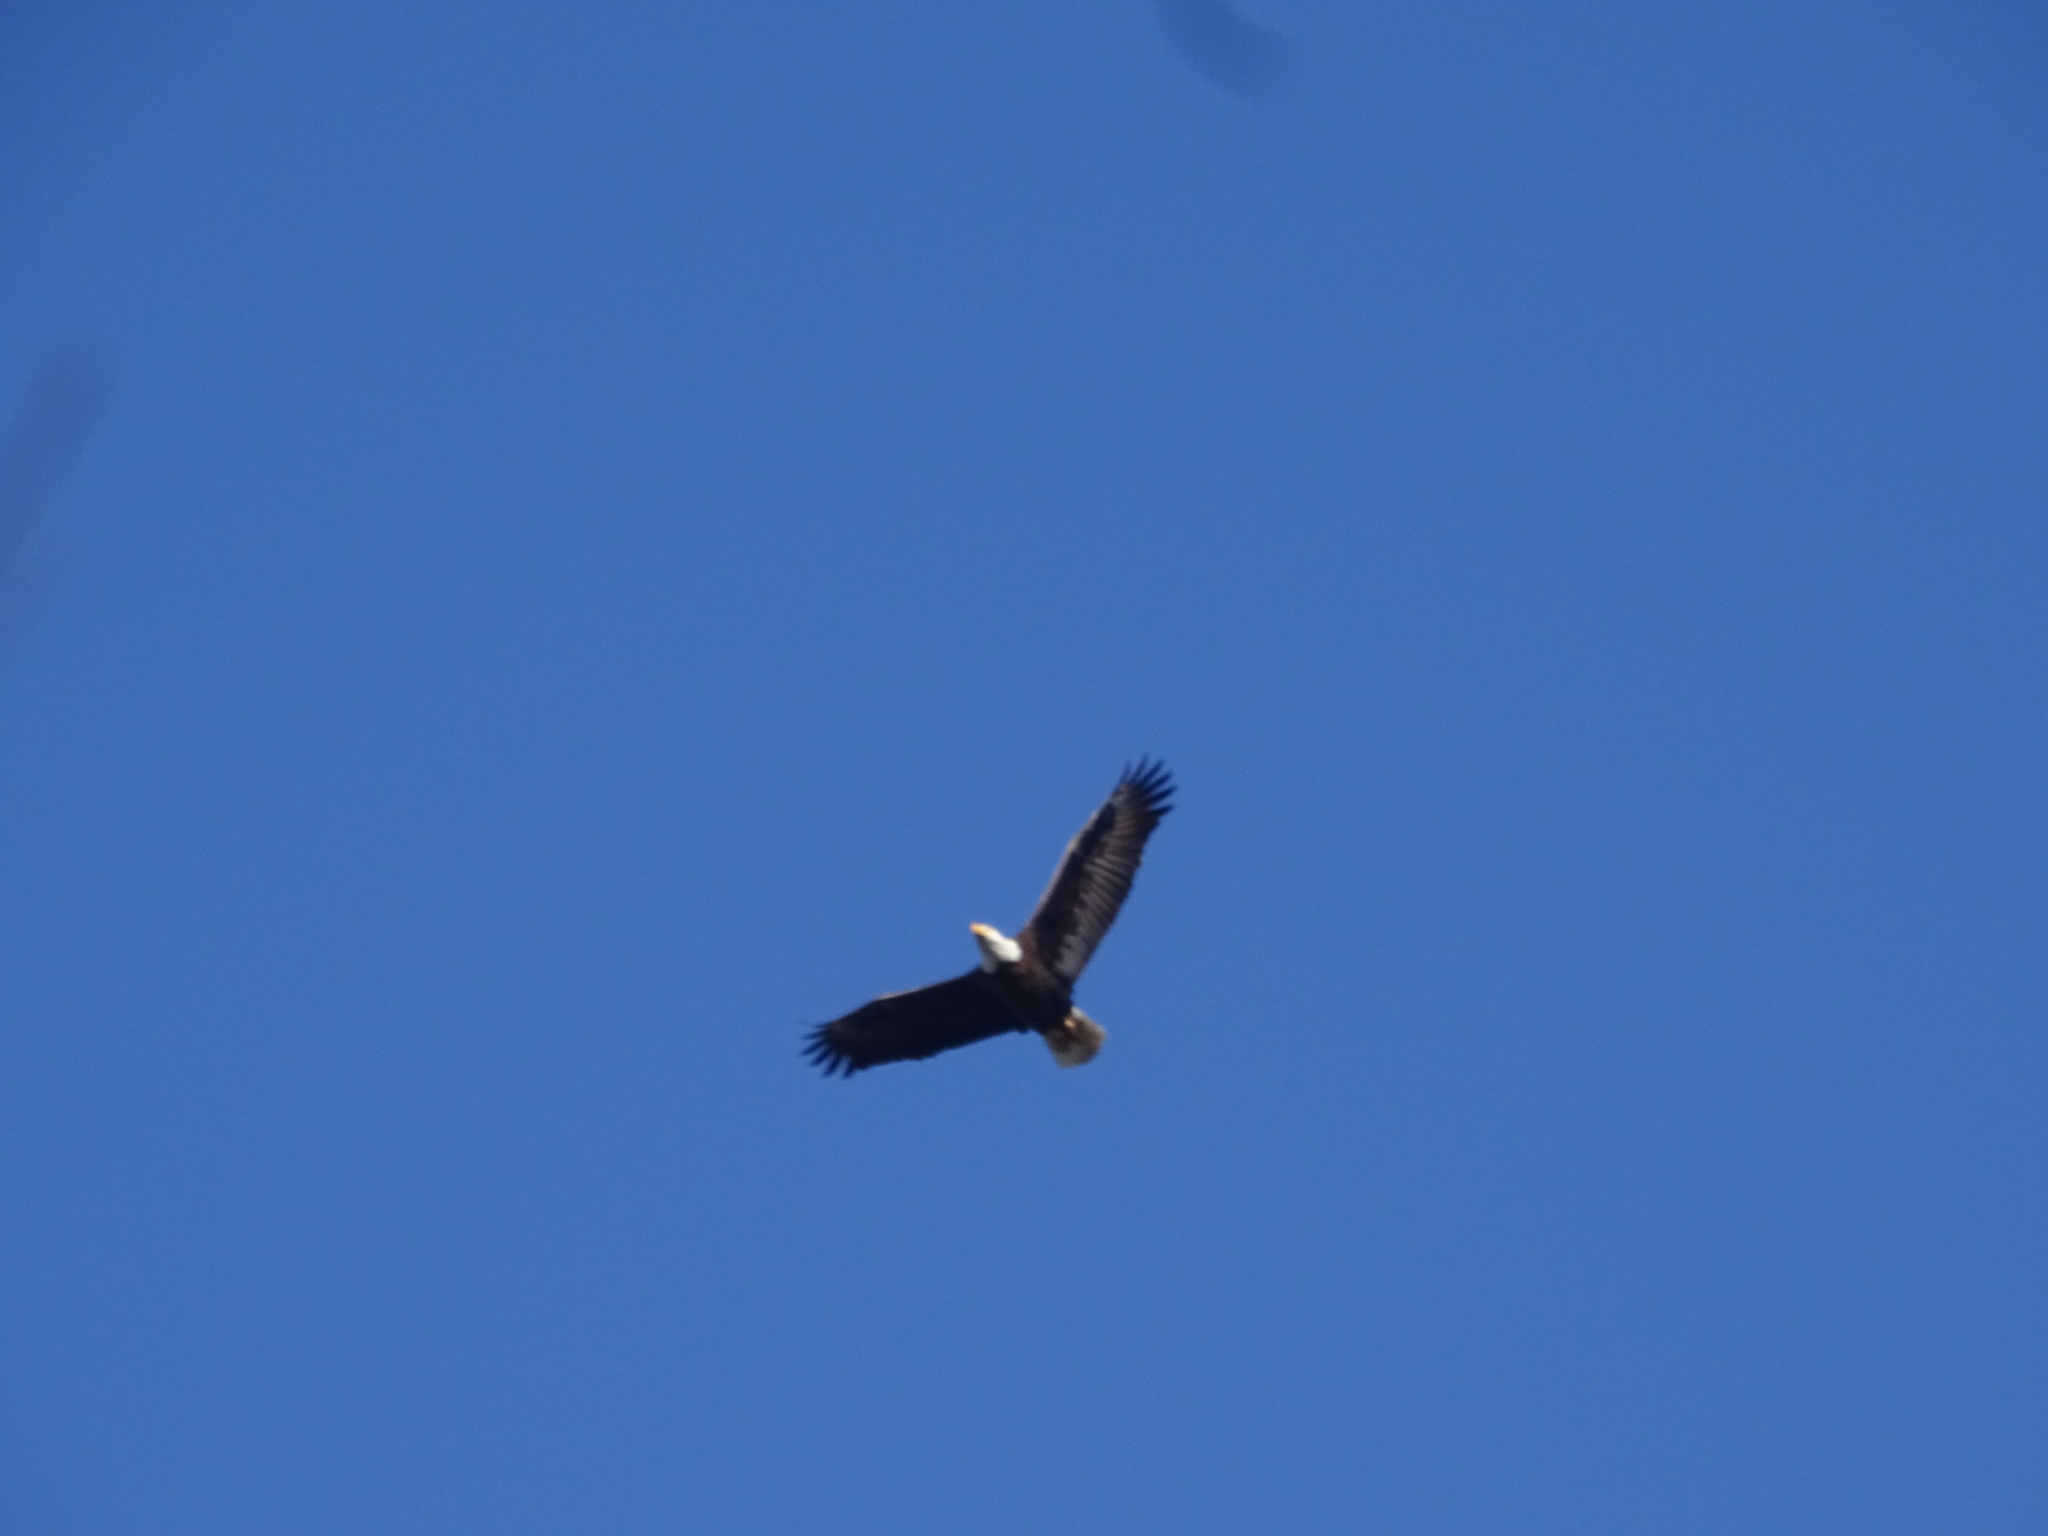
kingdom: Animalia
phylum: Chordata
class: Aves
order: Accipitriformes
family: Accipitridae
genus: Haliaeetus
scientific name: Haliaeetus leucocephalus
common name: Bald eagle
